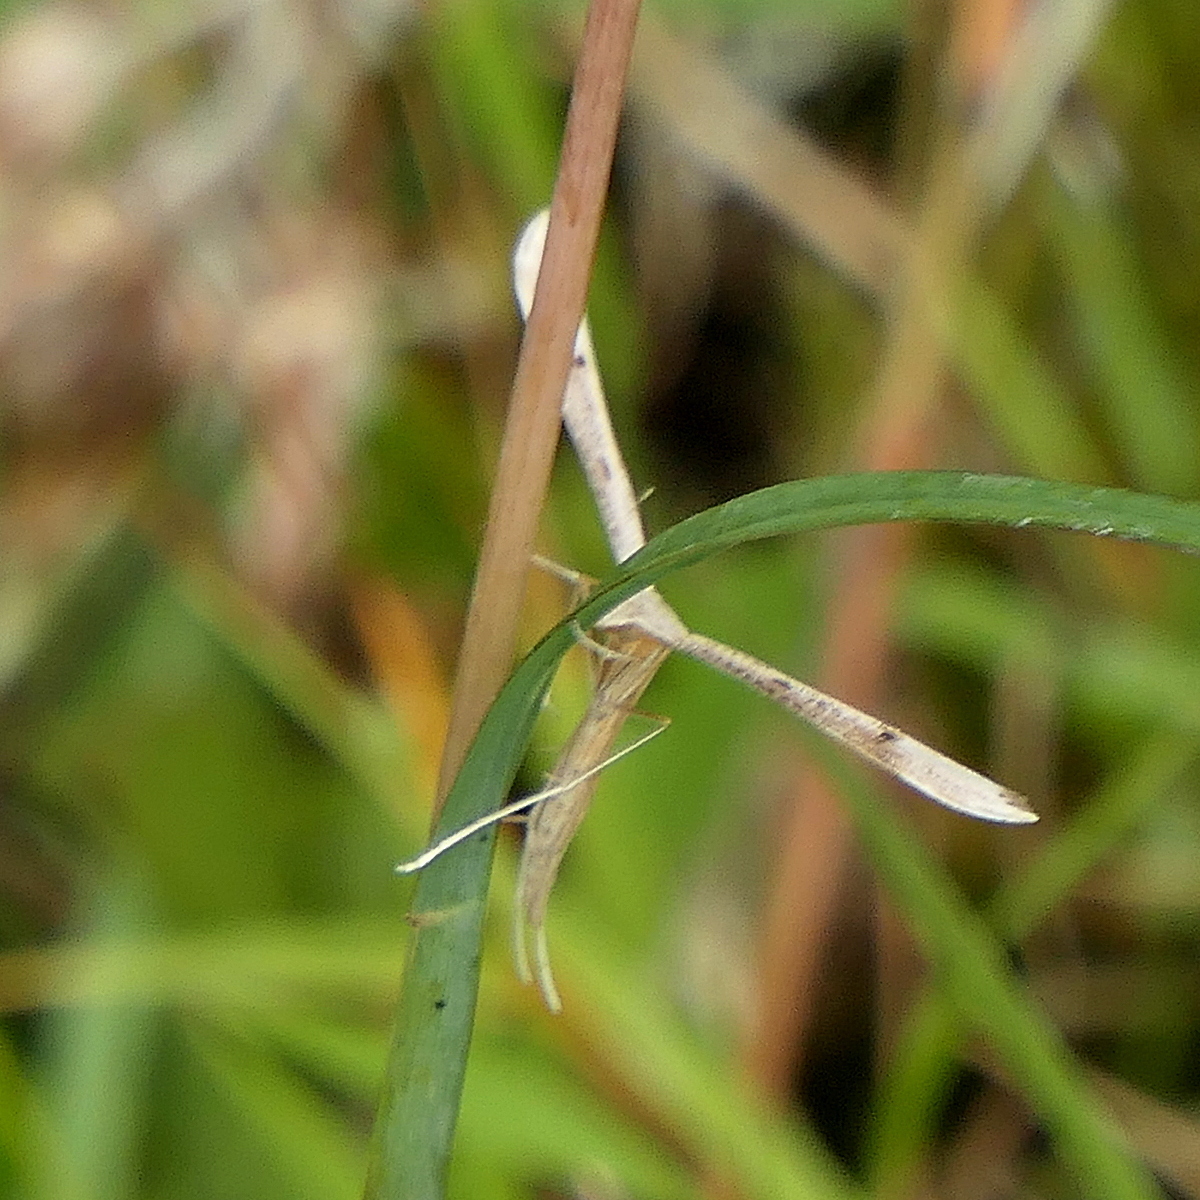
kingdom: Animalia
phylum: Arthropoda
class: Insecta
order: Lepidoptera
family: Pterophoridae
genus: Stenoptilia
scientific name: Stenoptilia zophodactylus
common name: Dowdy plume
